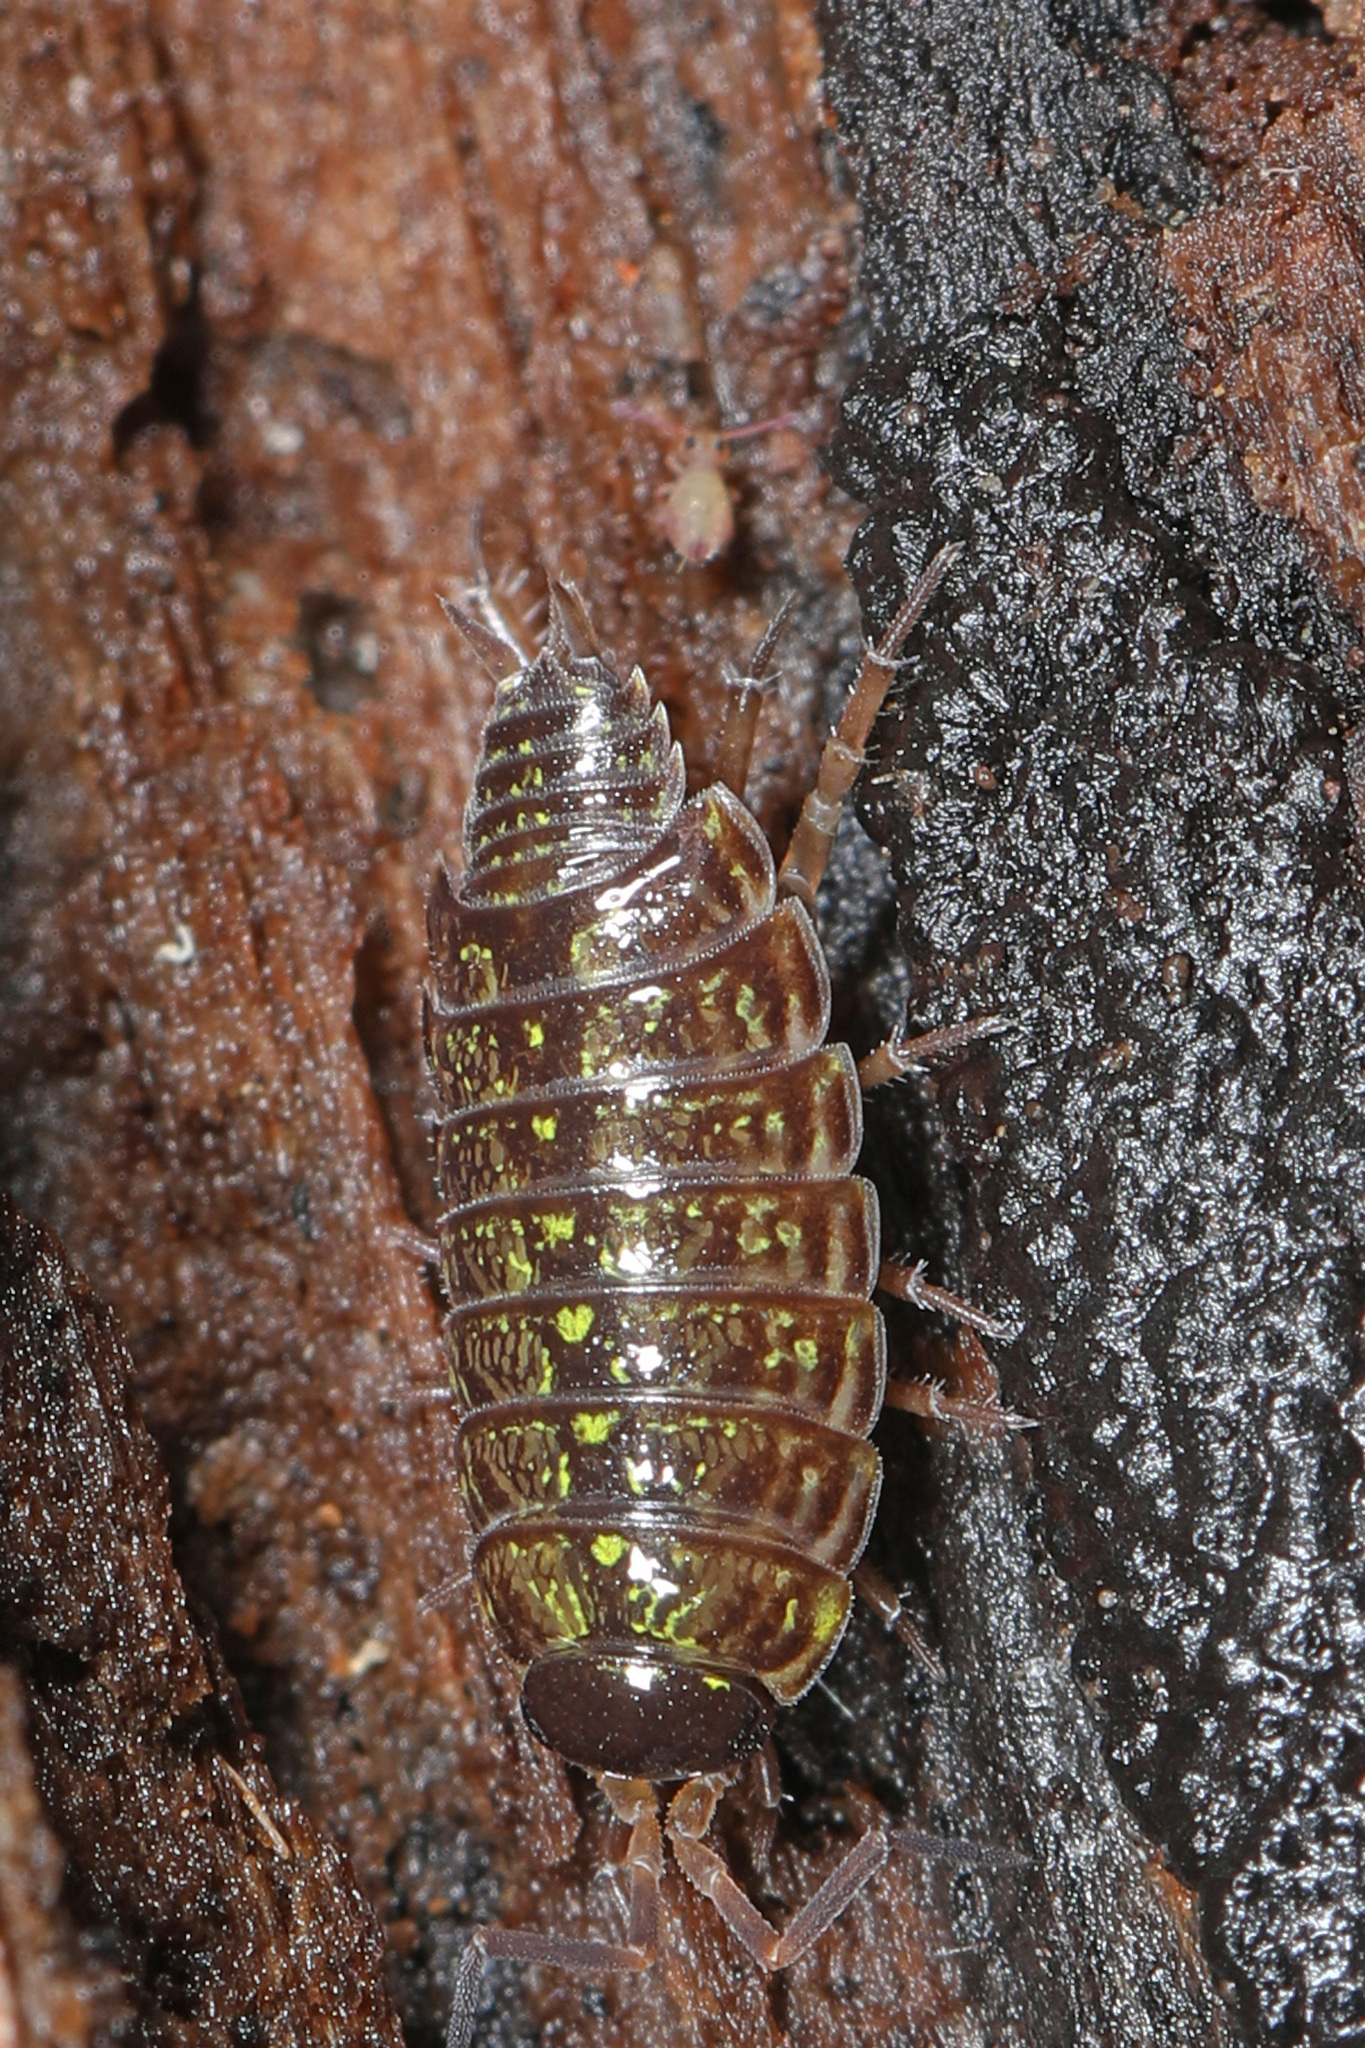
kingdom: Animalia
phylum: Arthropoda
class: Malacostraca
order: Isopoda
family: Philosciidae
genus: Philoscia
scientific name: Philoscia muscorum
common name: Common striped woodlouse
